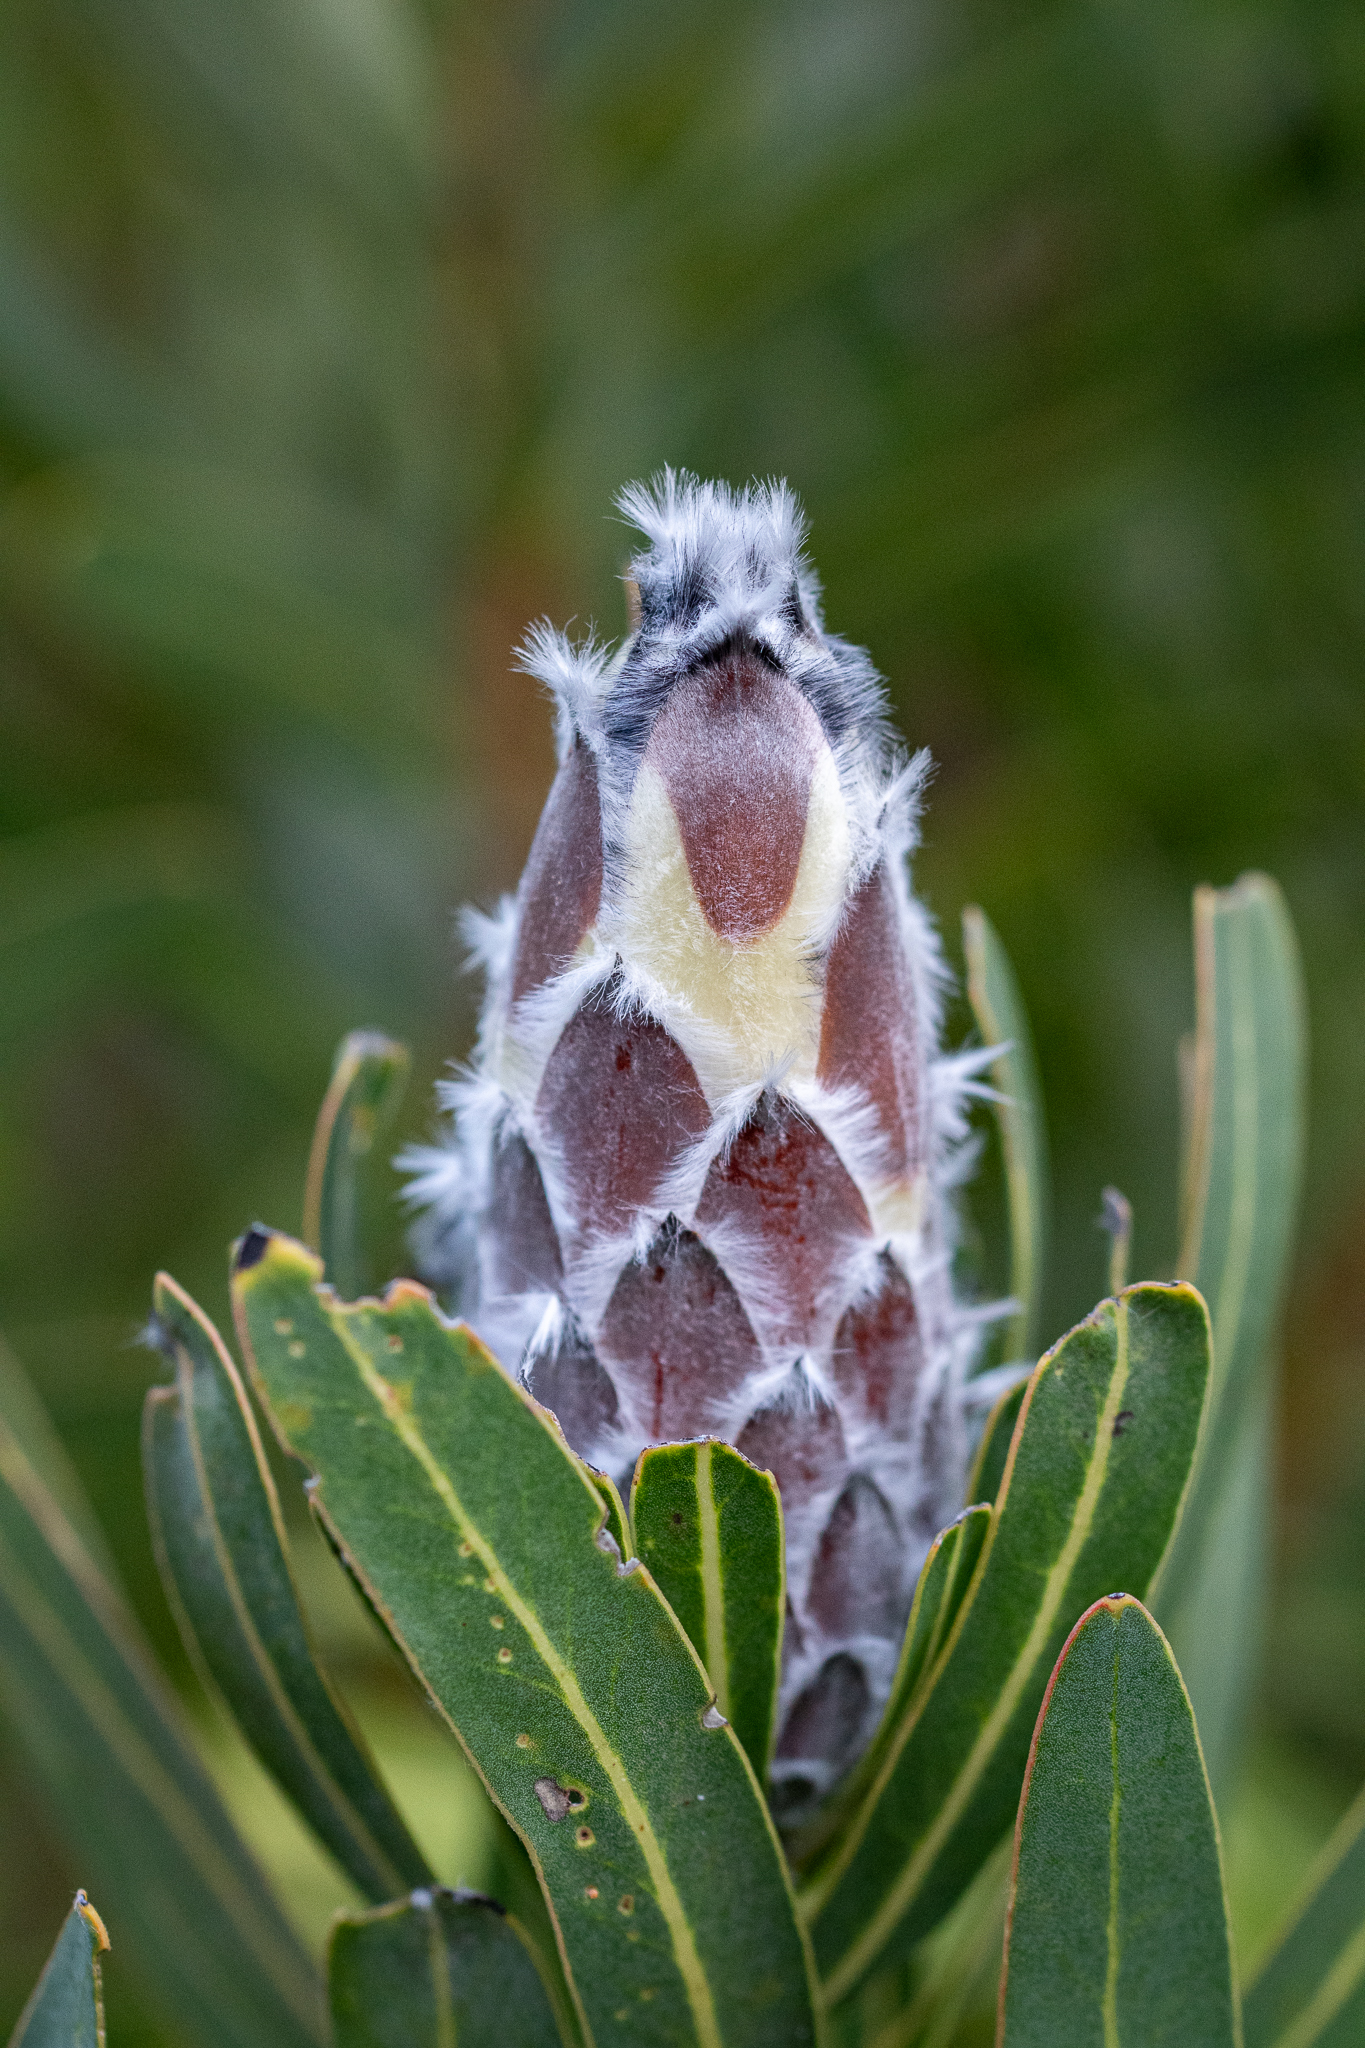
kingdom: Plantae
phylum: Tracheophyta
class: Magnoliopsida
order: Proteales
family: Proteaceae
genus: Protea
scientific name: Protea lepidocarpodendron
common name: Black-bearded protea
